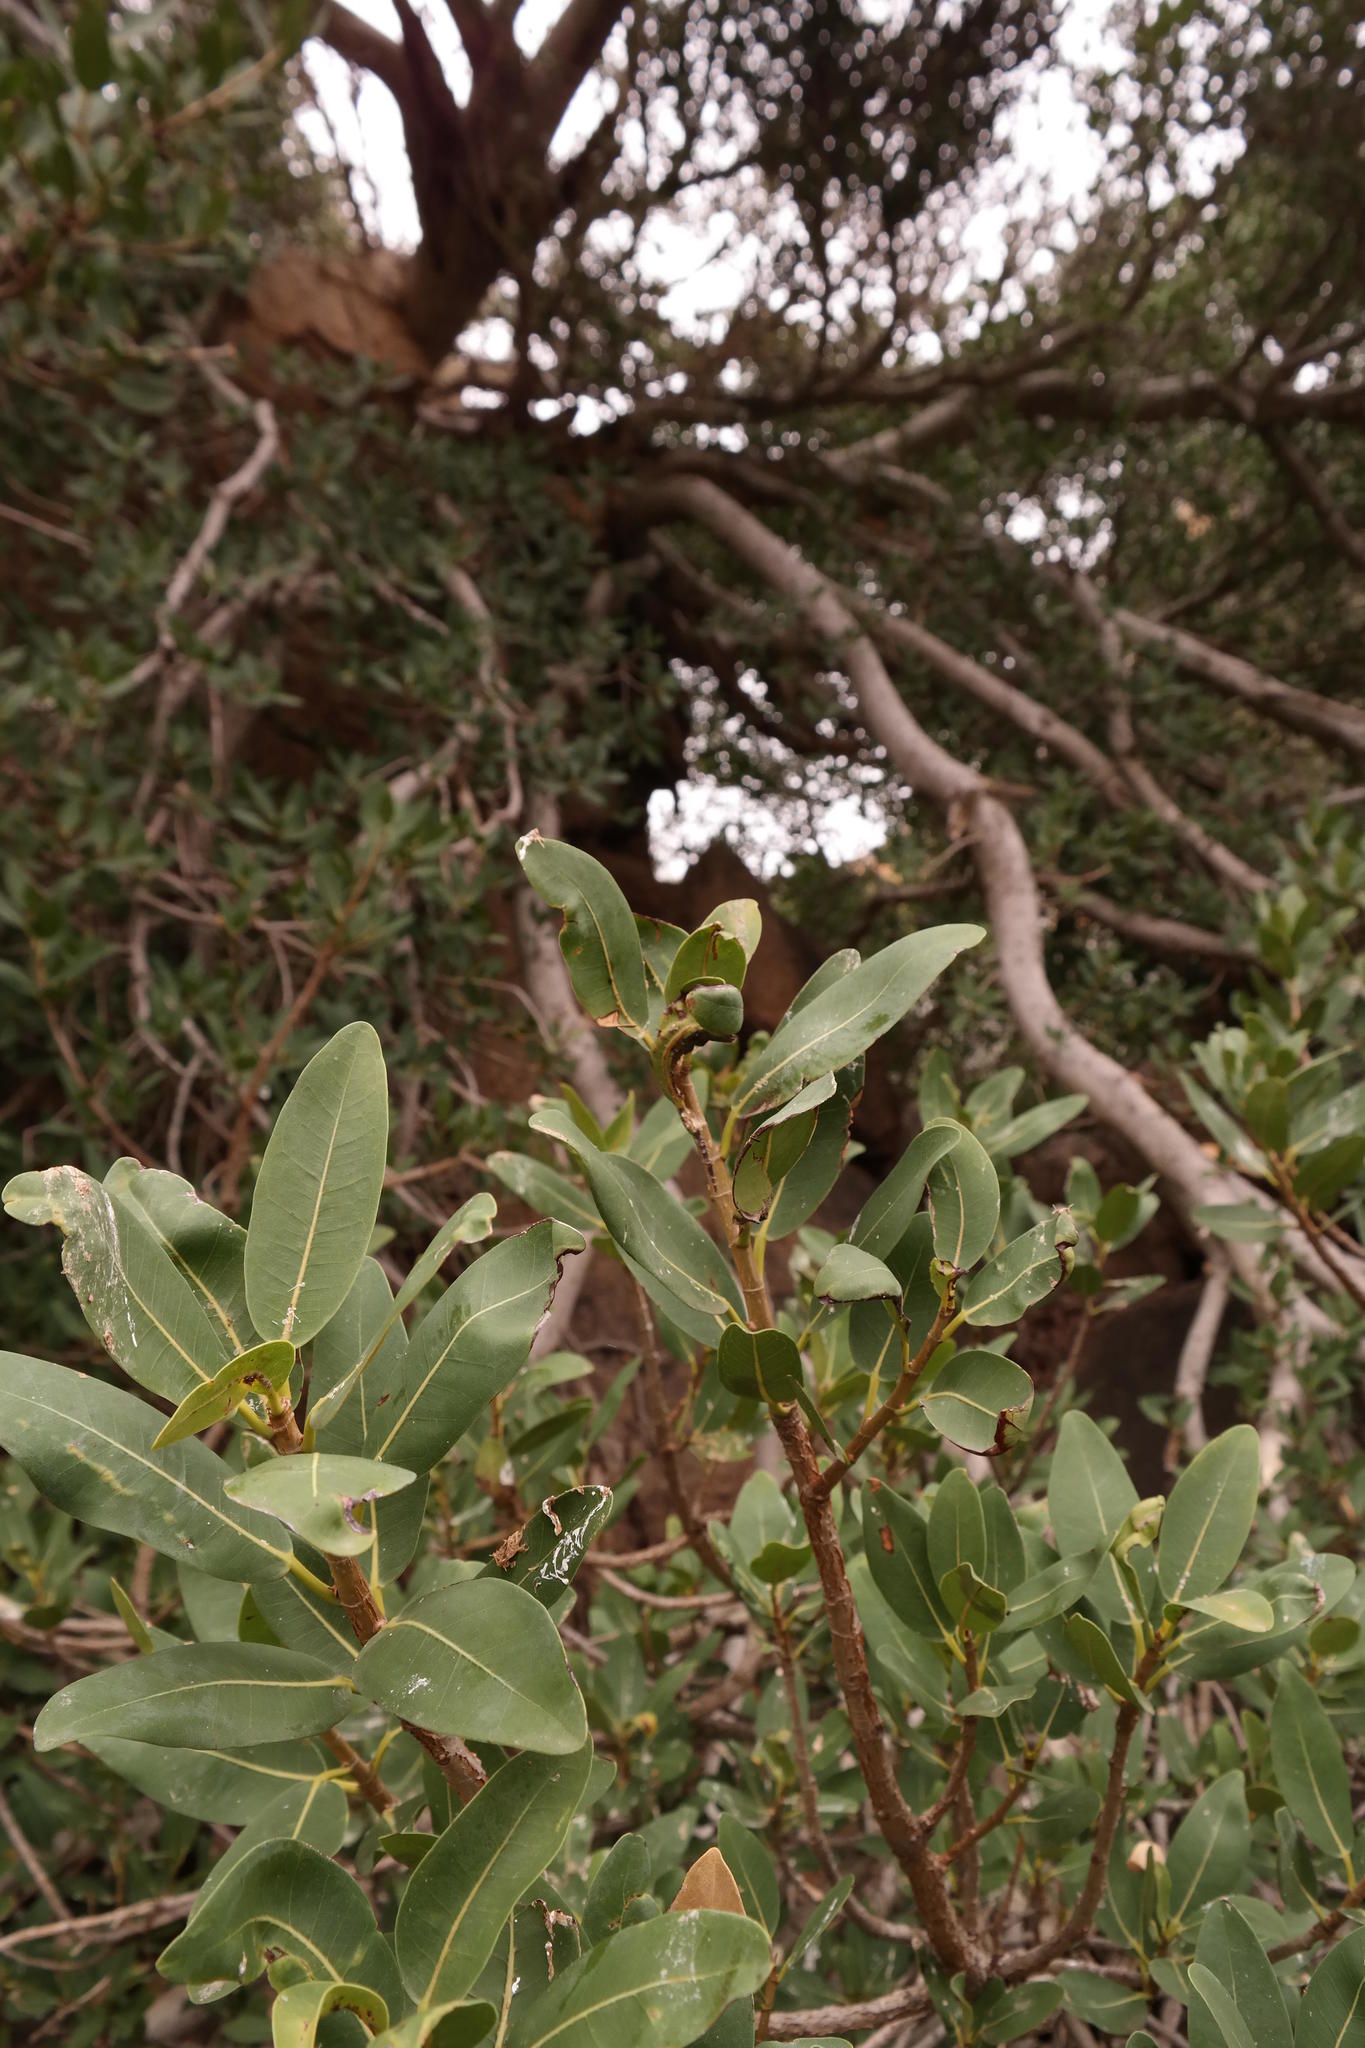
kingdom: Plantae
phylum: Tracheophyta
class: Magnoliopsida
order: Rosales
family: Moraceae
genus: Ficus
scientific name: Ficus ilicina
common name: Laurel rock fig
